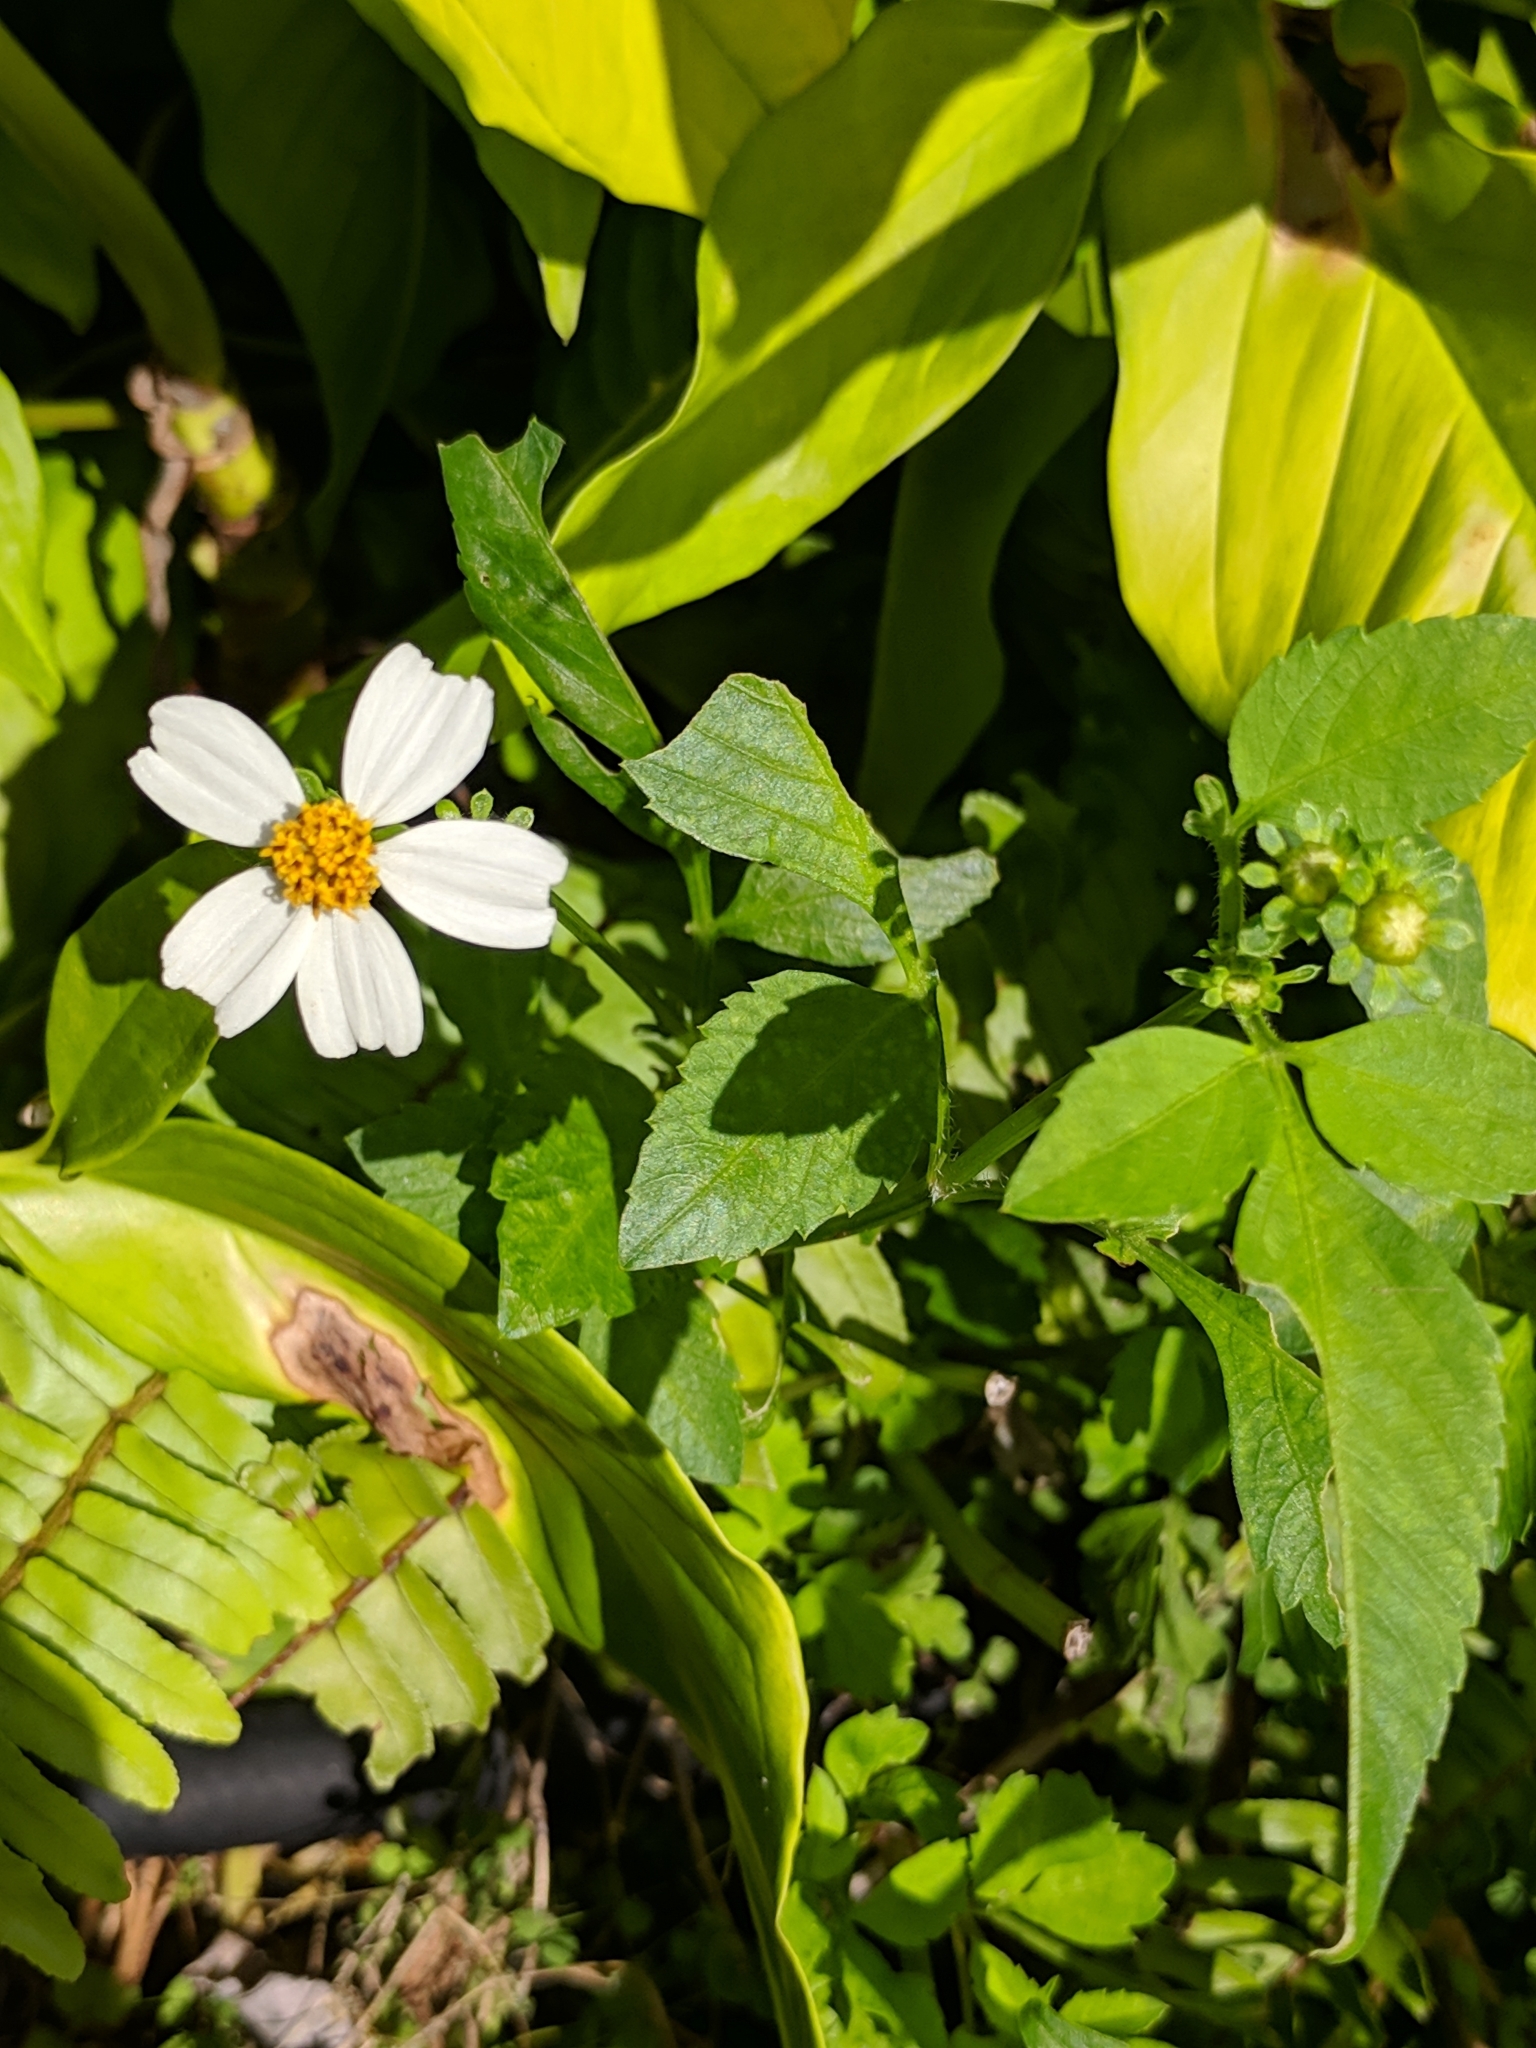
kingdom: Plantae
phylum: Tracheophyta
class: Magnoliopsida
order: Asterales
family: Asteraceae
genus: Bidens
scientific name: Bidens alba
